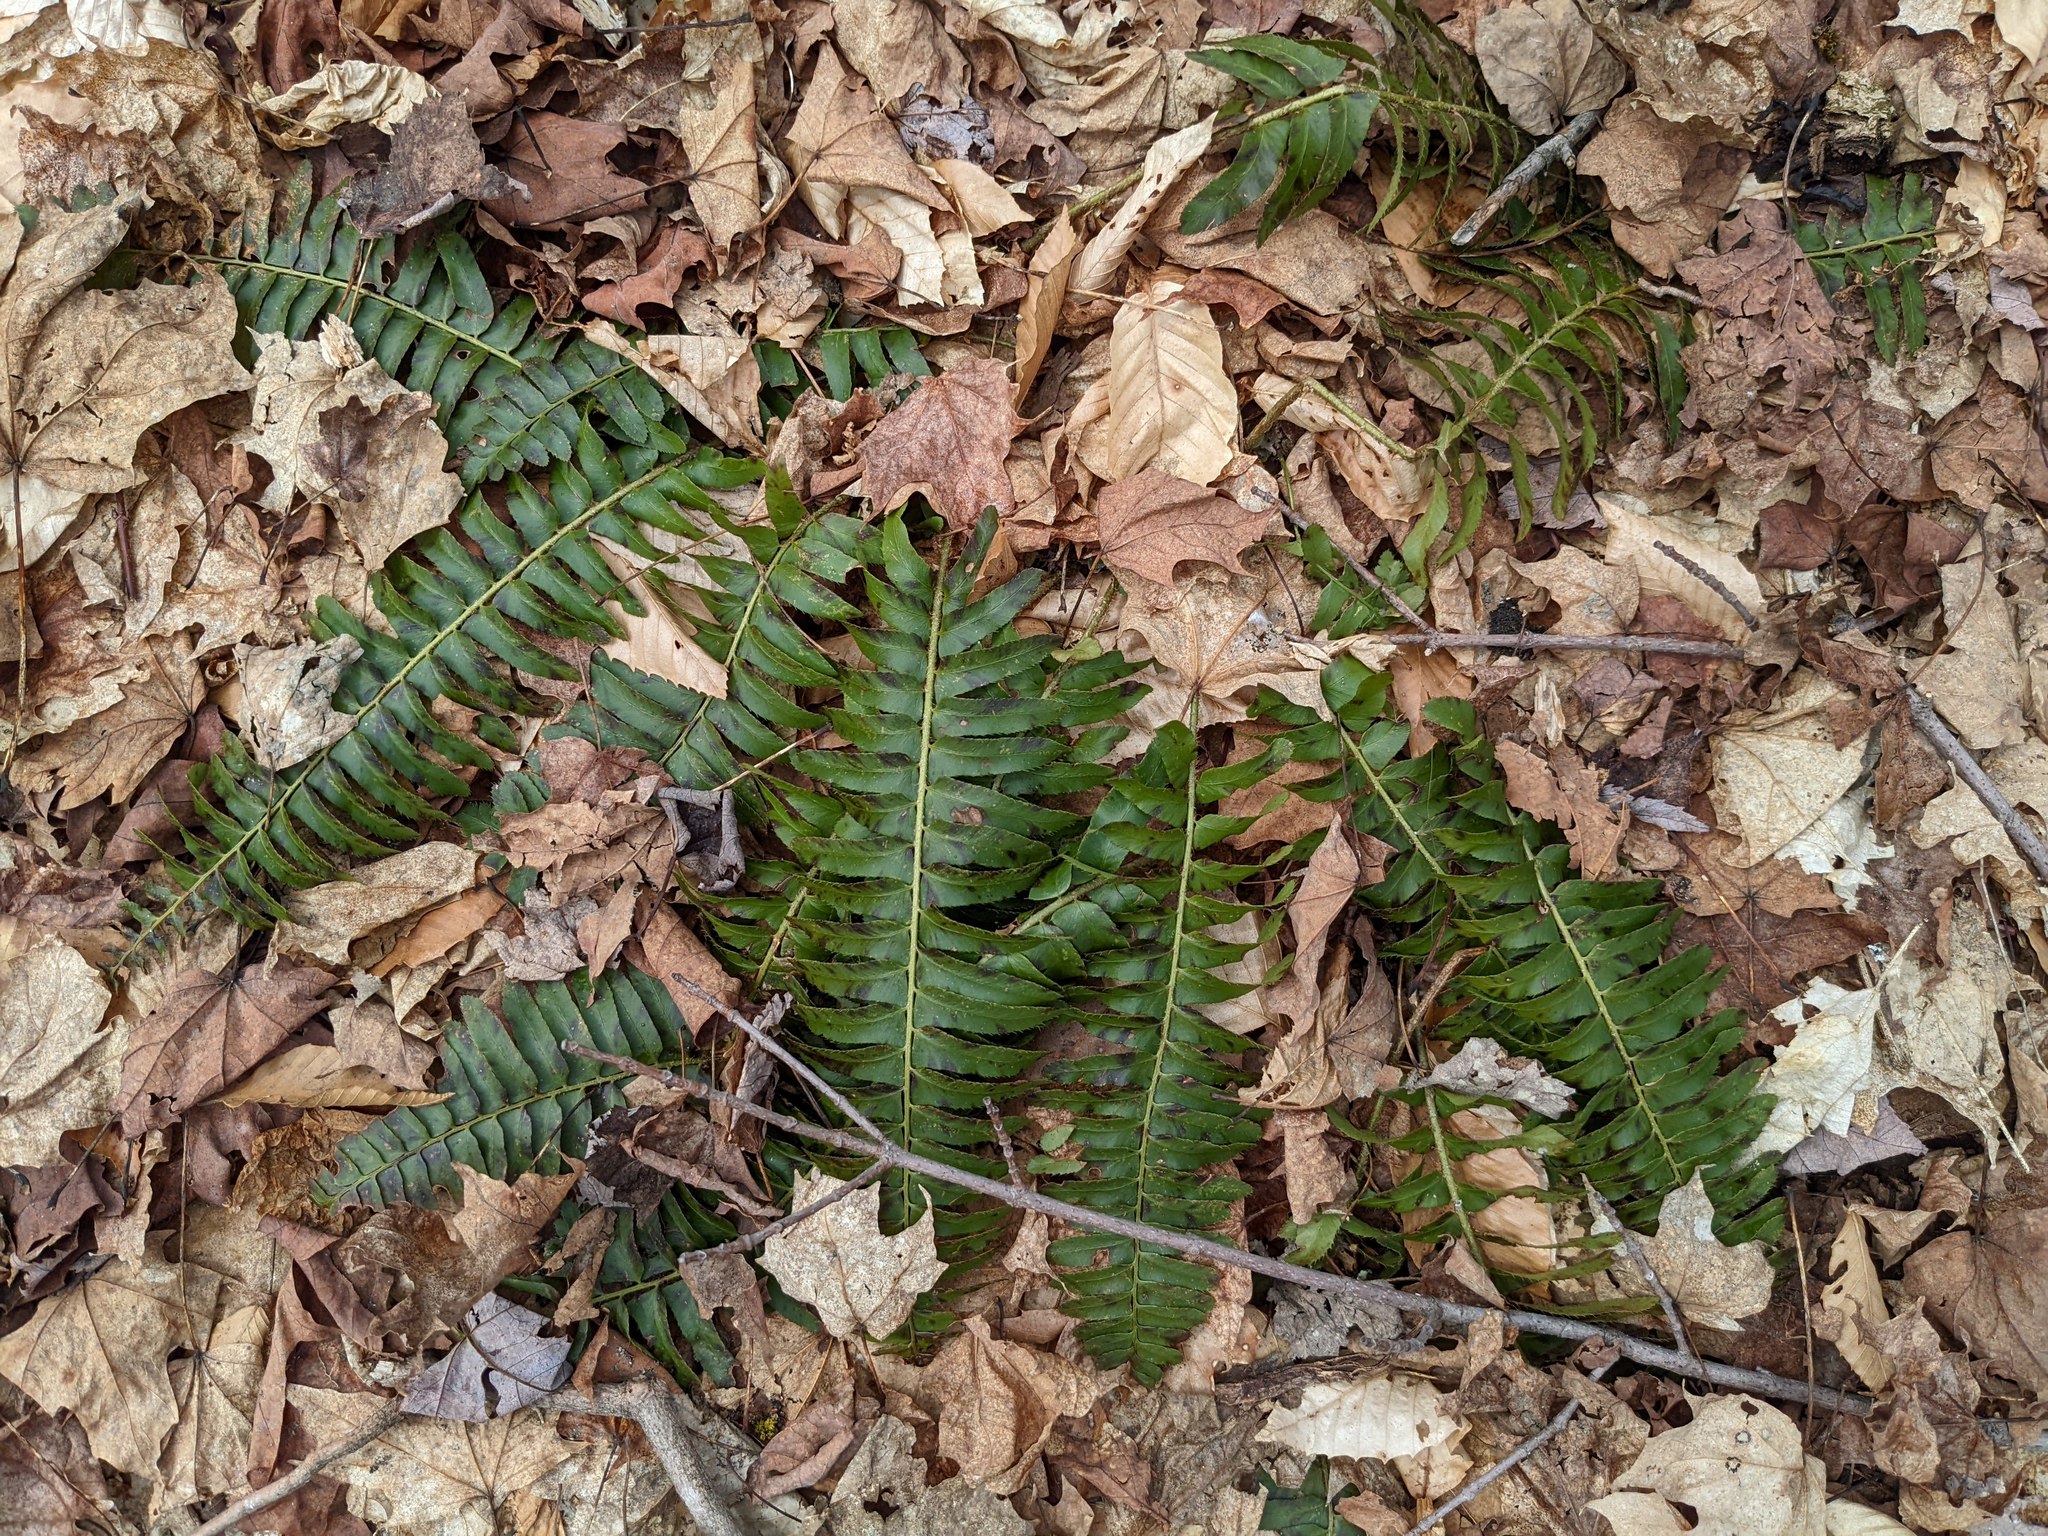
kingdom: Plantae
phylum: Tracheophyta
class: Polypodiopsida
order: Polypodiales
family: Dryopteridaceae
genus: Polystichum
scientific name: Polystichum acrostichoides
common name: Christmas fern
